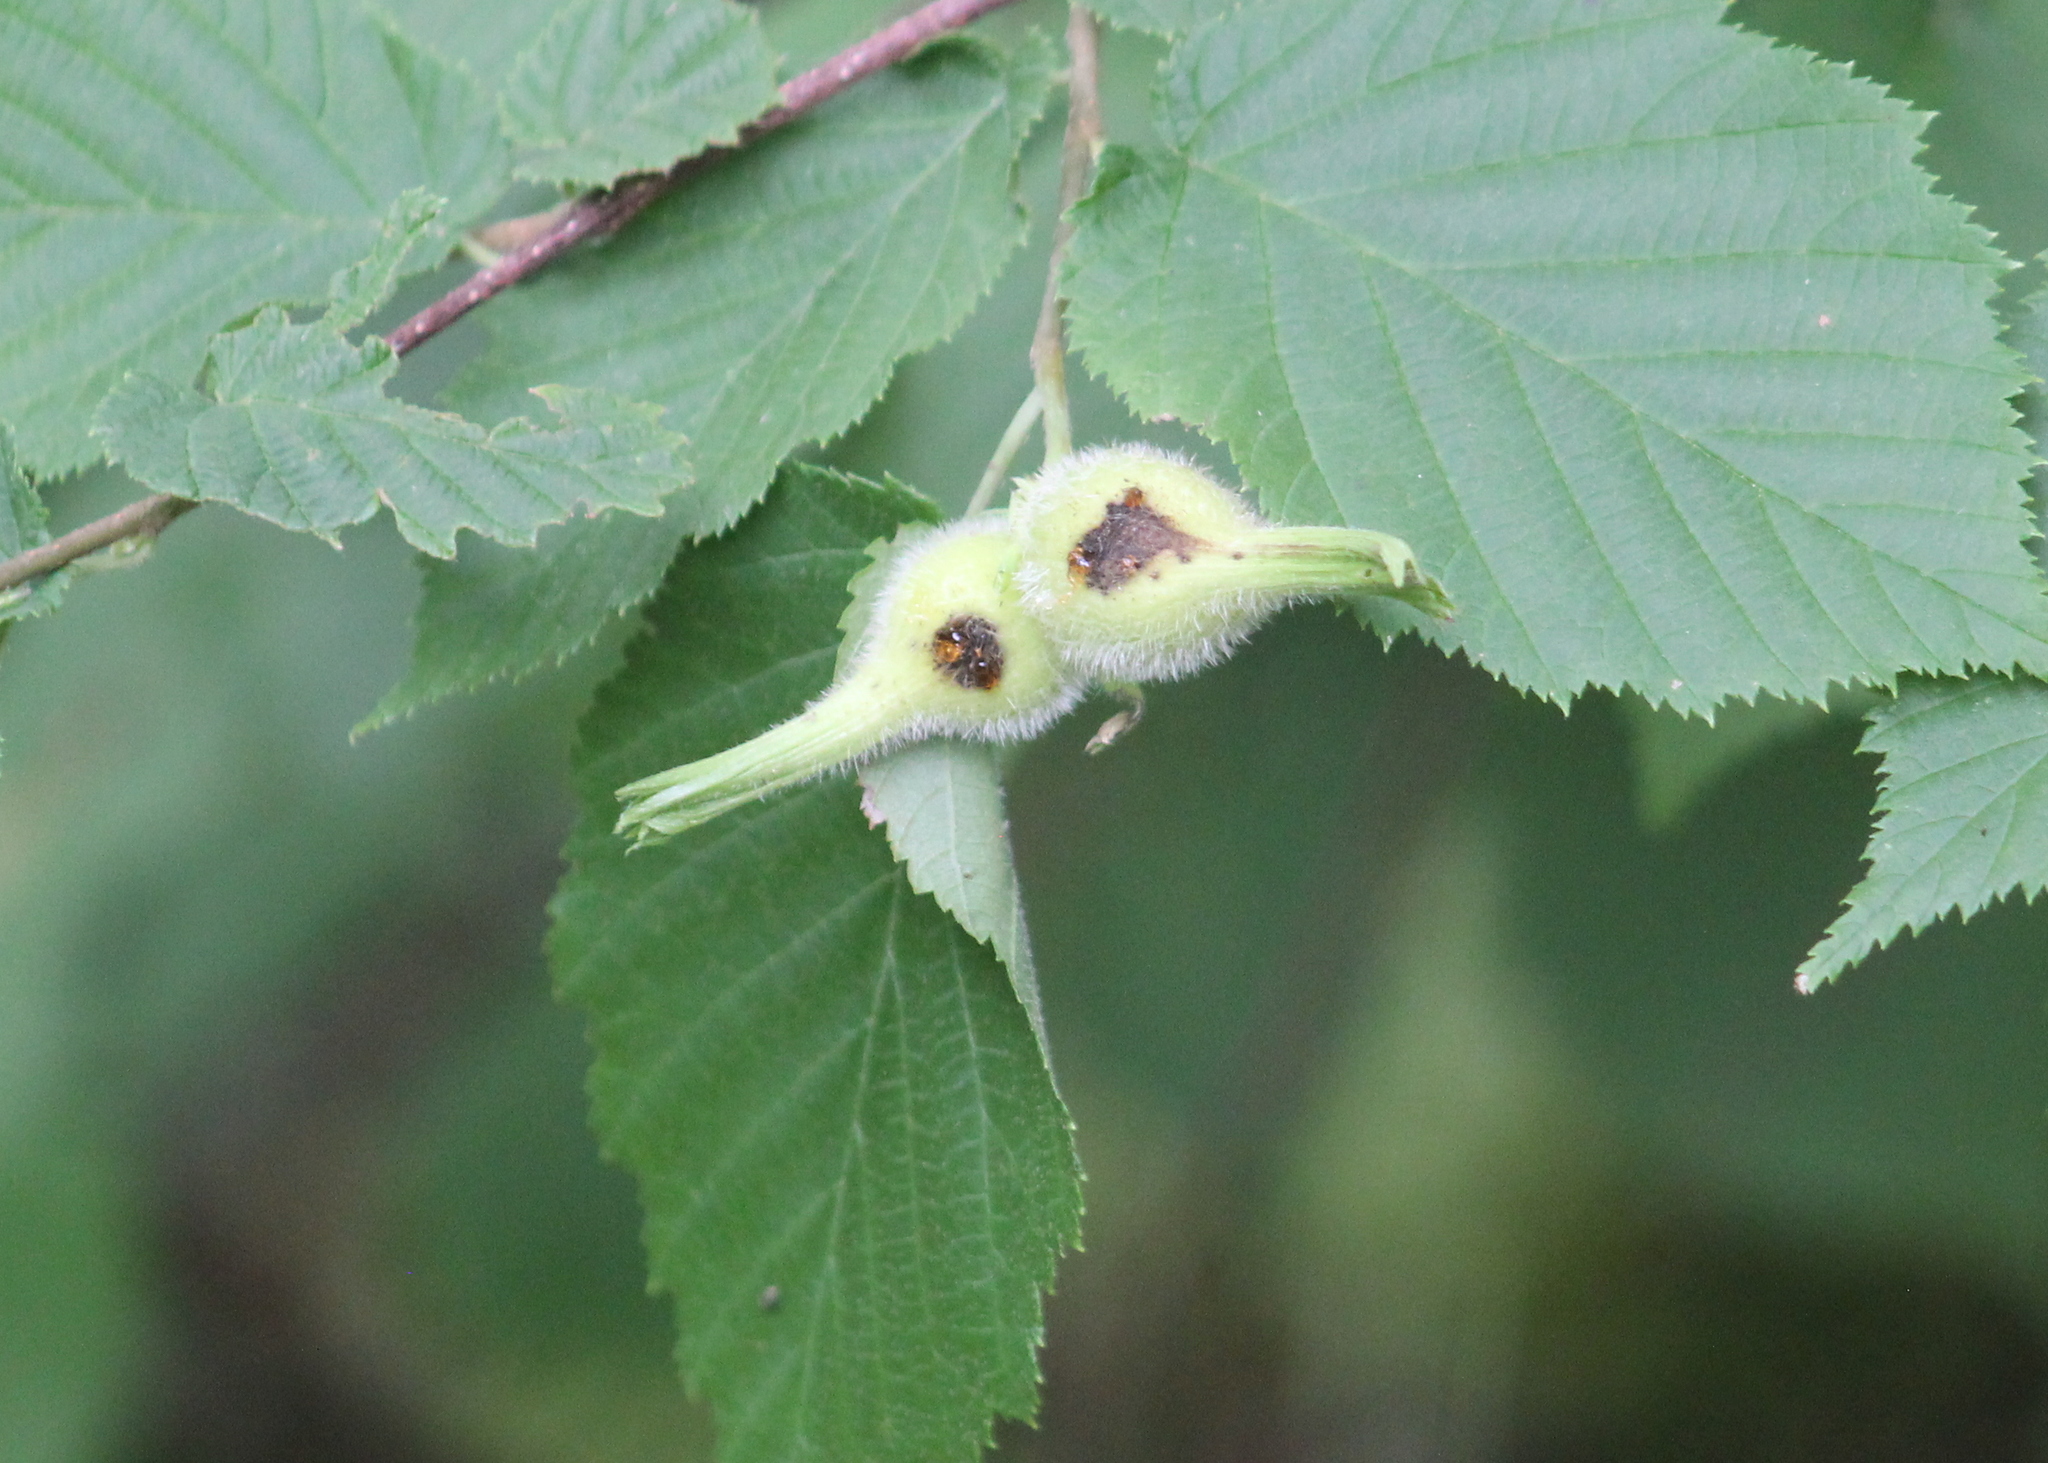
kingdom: Plantae
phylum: Tracheophyta
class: Magnoliopsida
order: Fagales
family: Betulaceae
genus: Corylus
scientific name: Corylus cornuta
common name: Beaked hazel
